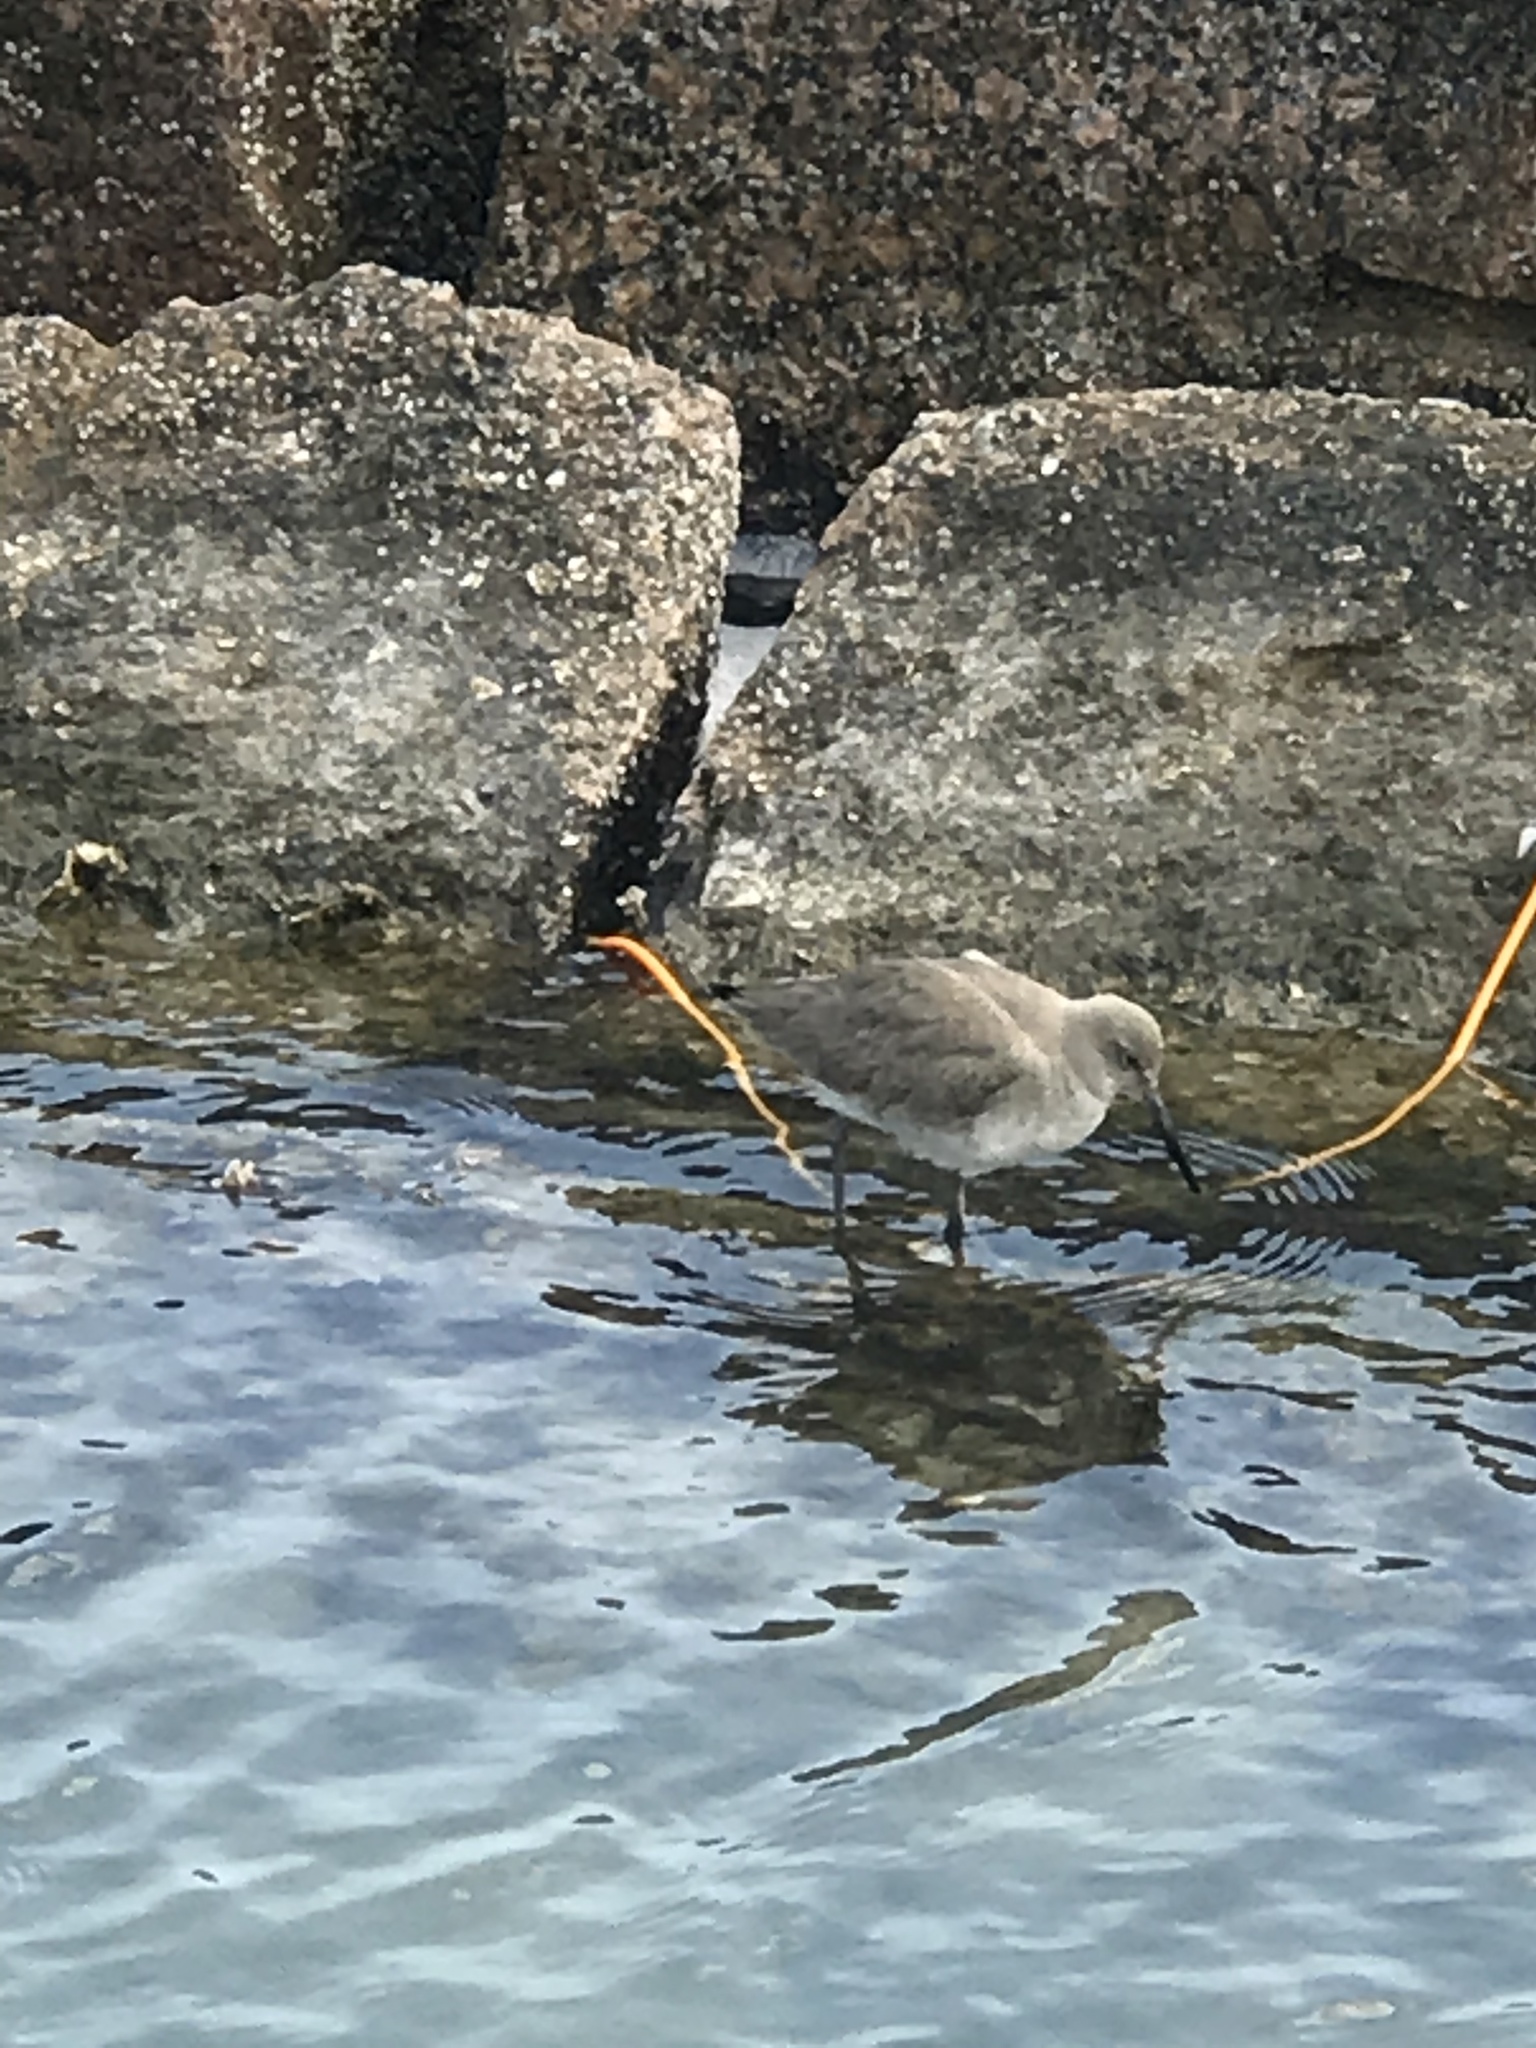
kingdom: Animalia
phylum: Chordata
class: Aves
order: Charadriiformes
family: Scolopacidae
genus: Tringa
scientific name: Tringa semipalmata
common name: Willet
